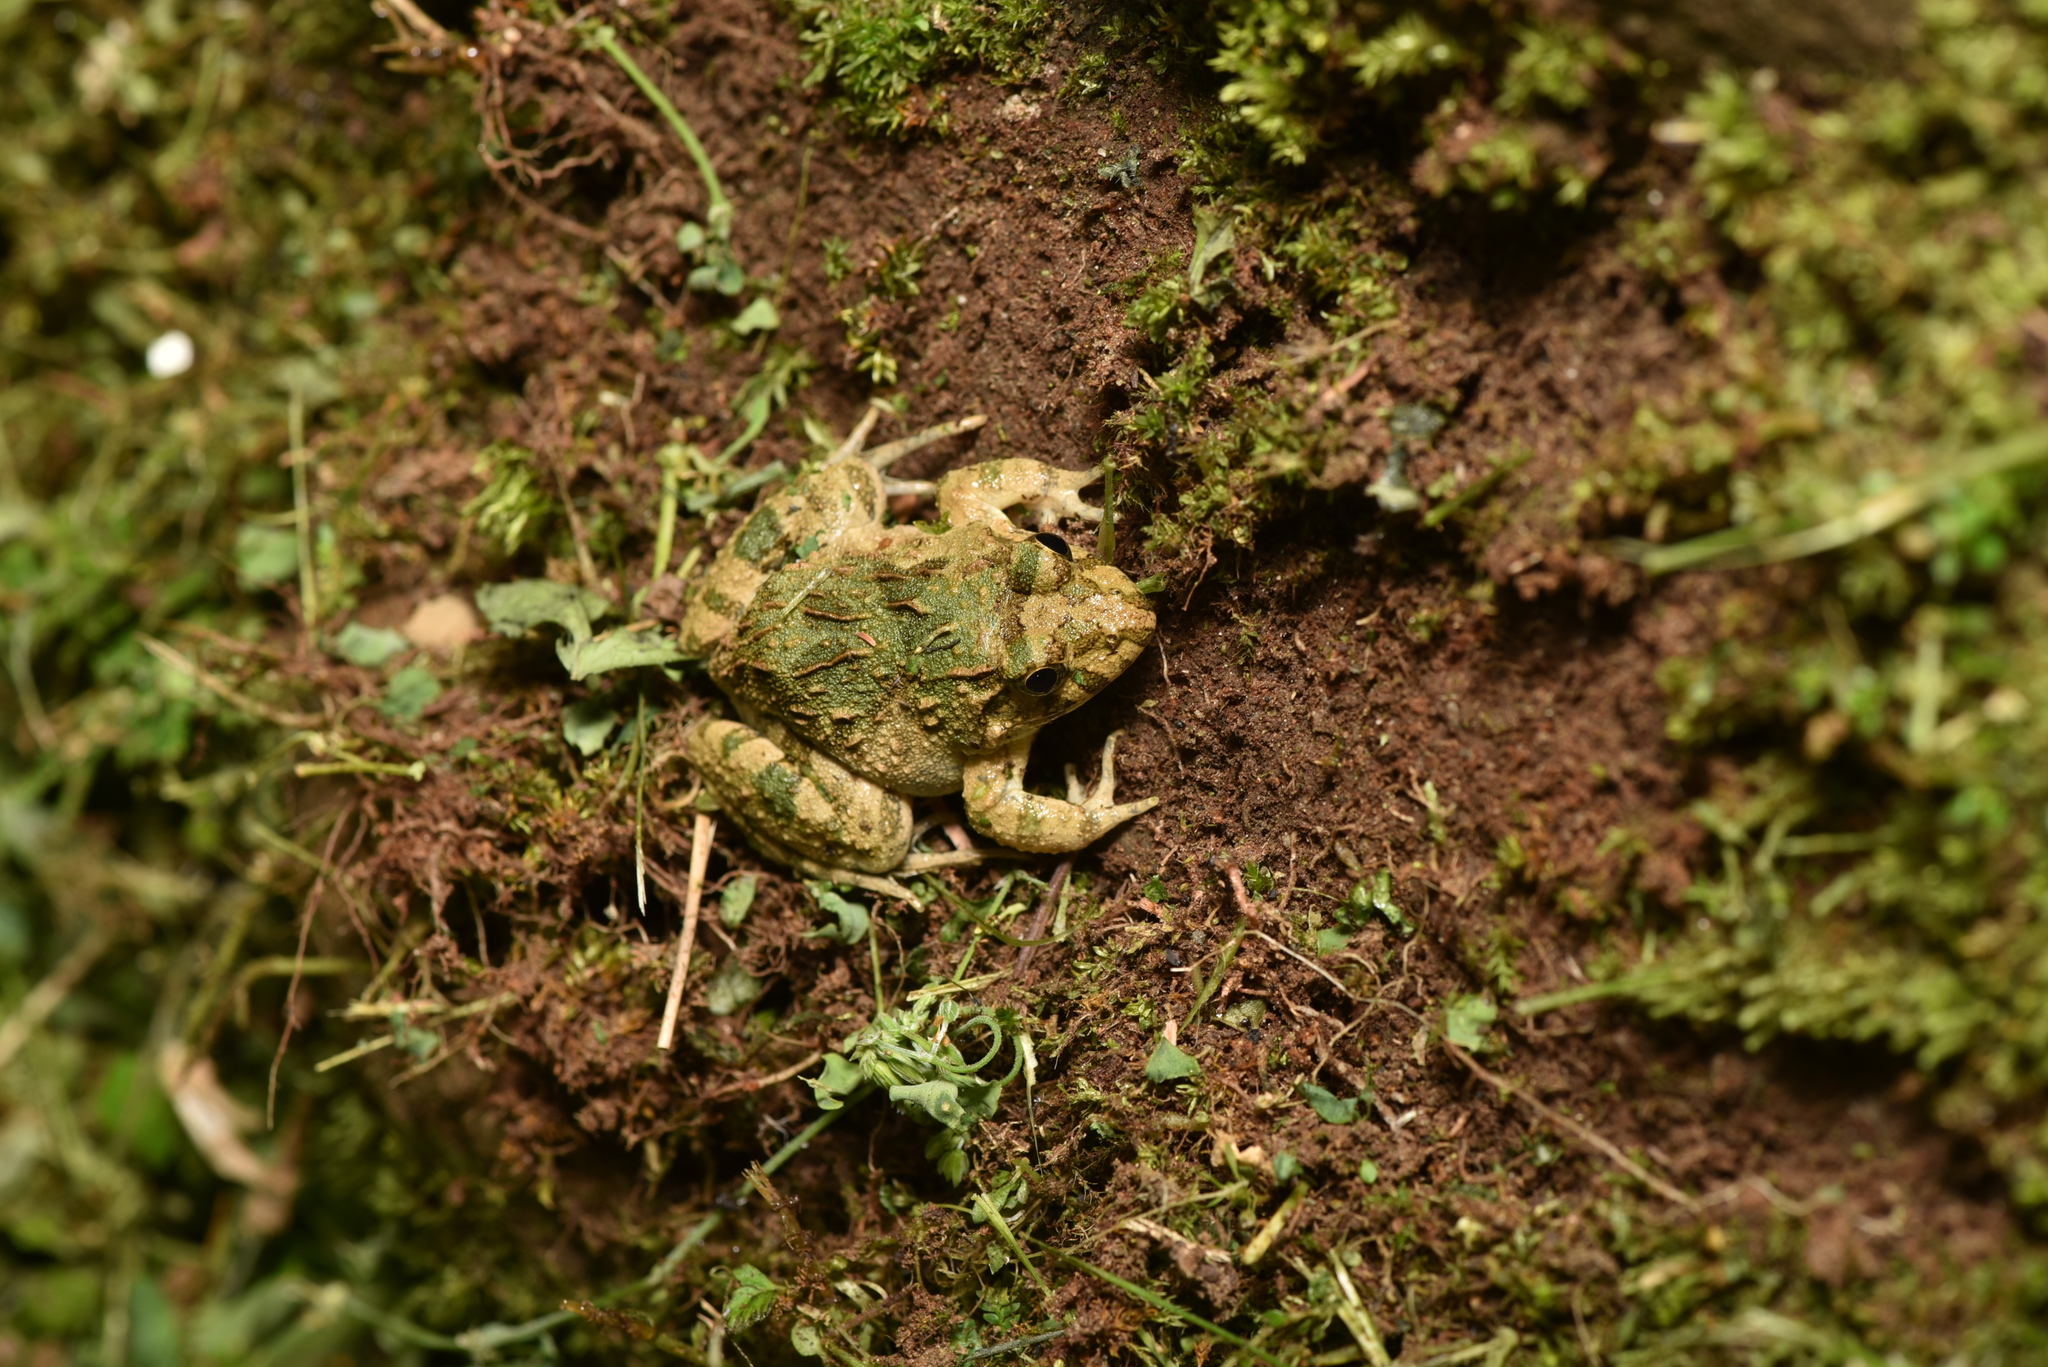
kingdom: Animalia
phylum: Chordata
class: Amphibia
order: Anura
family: Dicroglossidae
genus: Fejervarya
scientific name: Fejervarya limnocharis
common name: Asian grass frog/common pond frog/field frog/grass frog/indian rice frog
